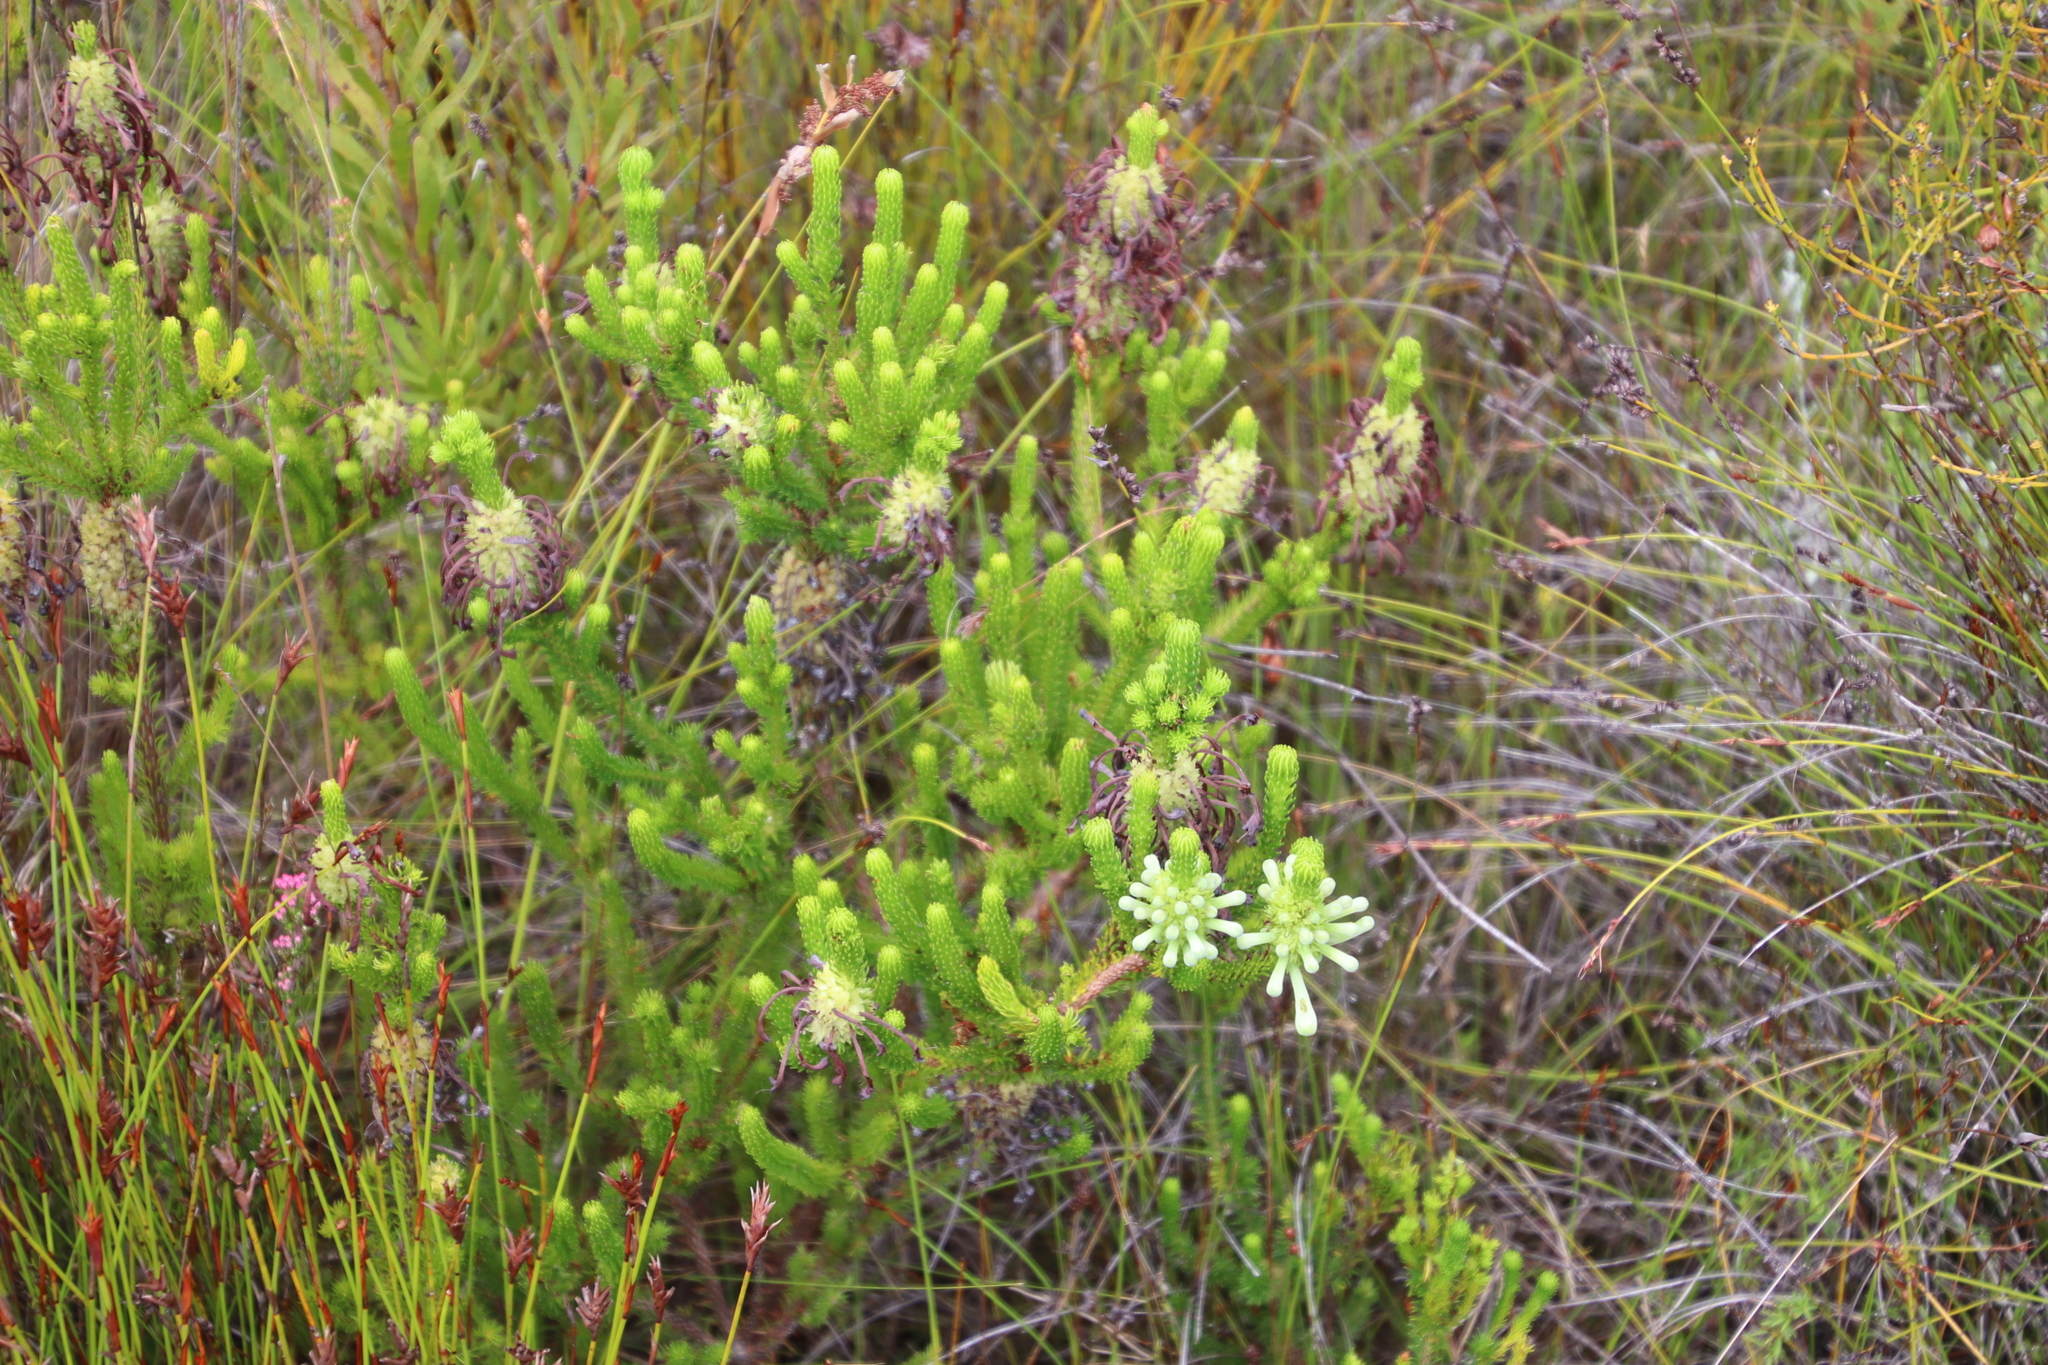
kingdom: Plantae
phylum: Tracheophyta
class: Magnoliopsida
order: Ericales
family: Ericaceae
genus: Erica
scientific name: Erica sessiliflora
